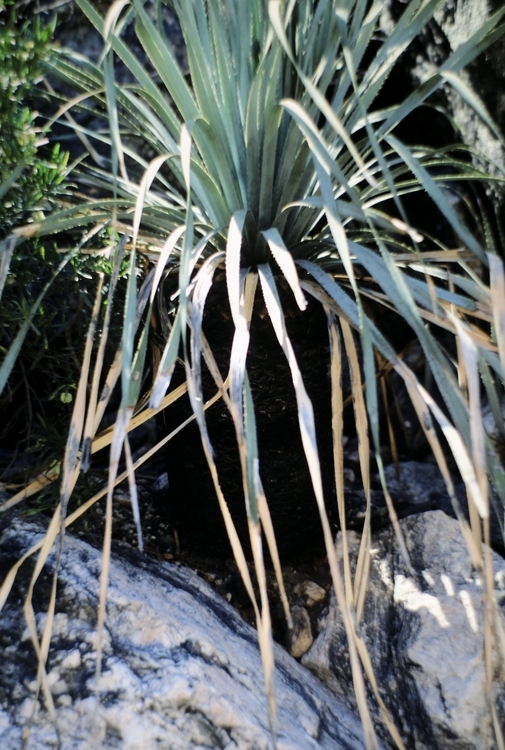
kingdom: Plantae
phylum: Tracheophyta
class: Liliopsida
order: Asparagales
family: Asparagaceae
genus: Dasylirion
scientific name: Dasylirion wheeleri
